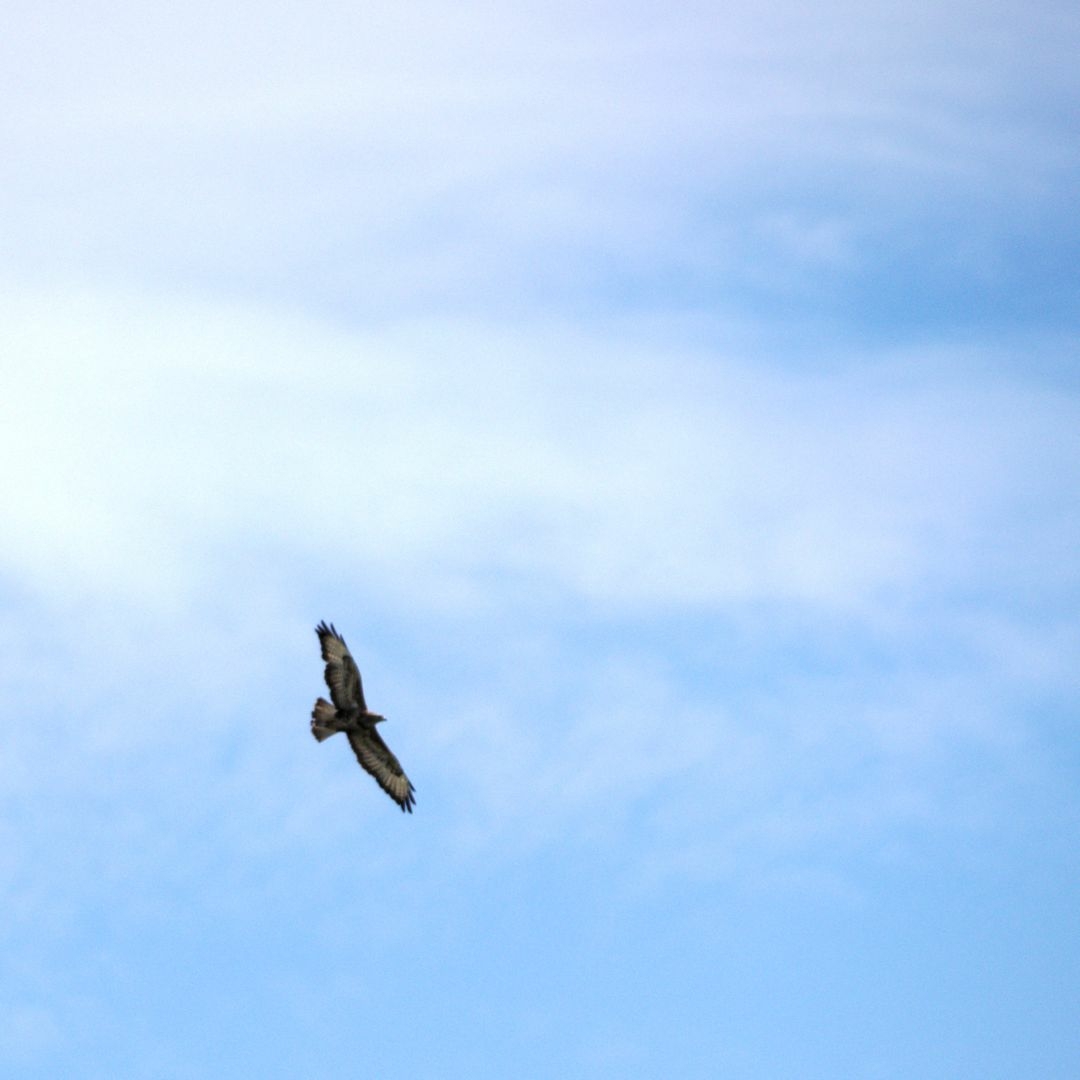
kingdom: Animalia
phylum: Chordata
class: Aves
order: Accipitriformes
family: Accipitridae
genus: Buteo
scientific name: Buteo buteo
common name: Common buzzard
